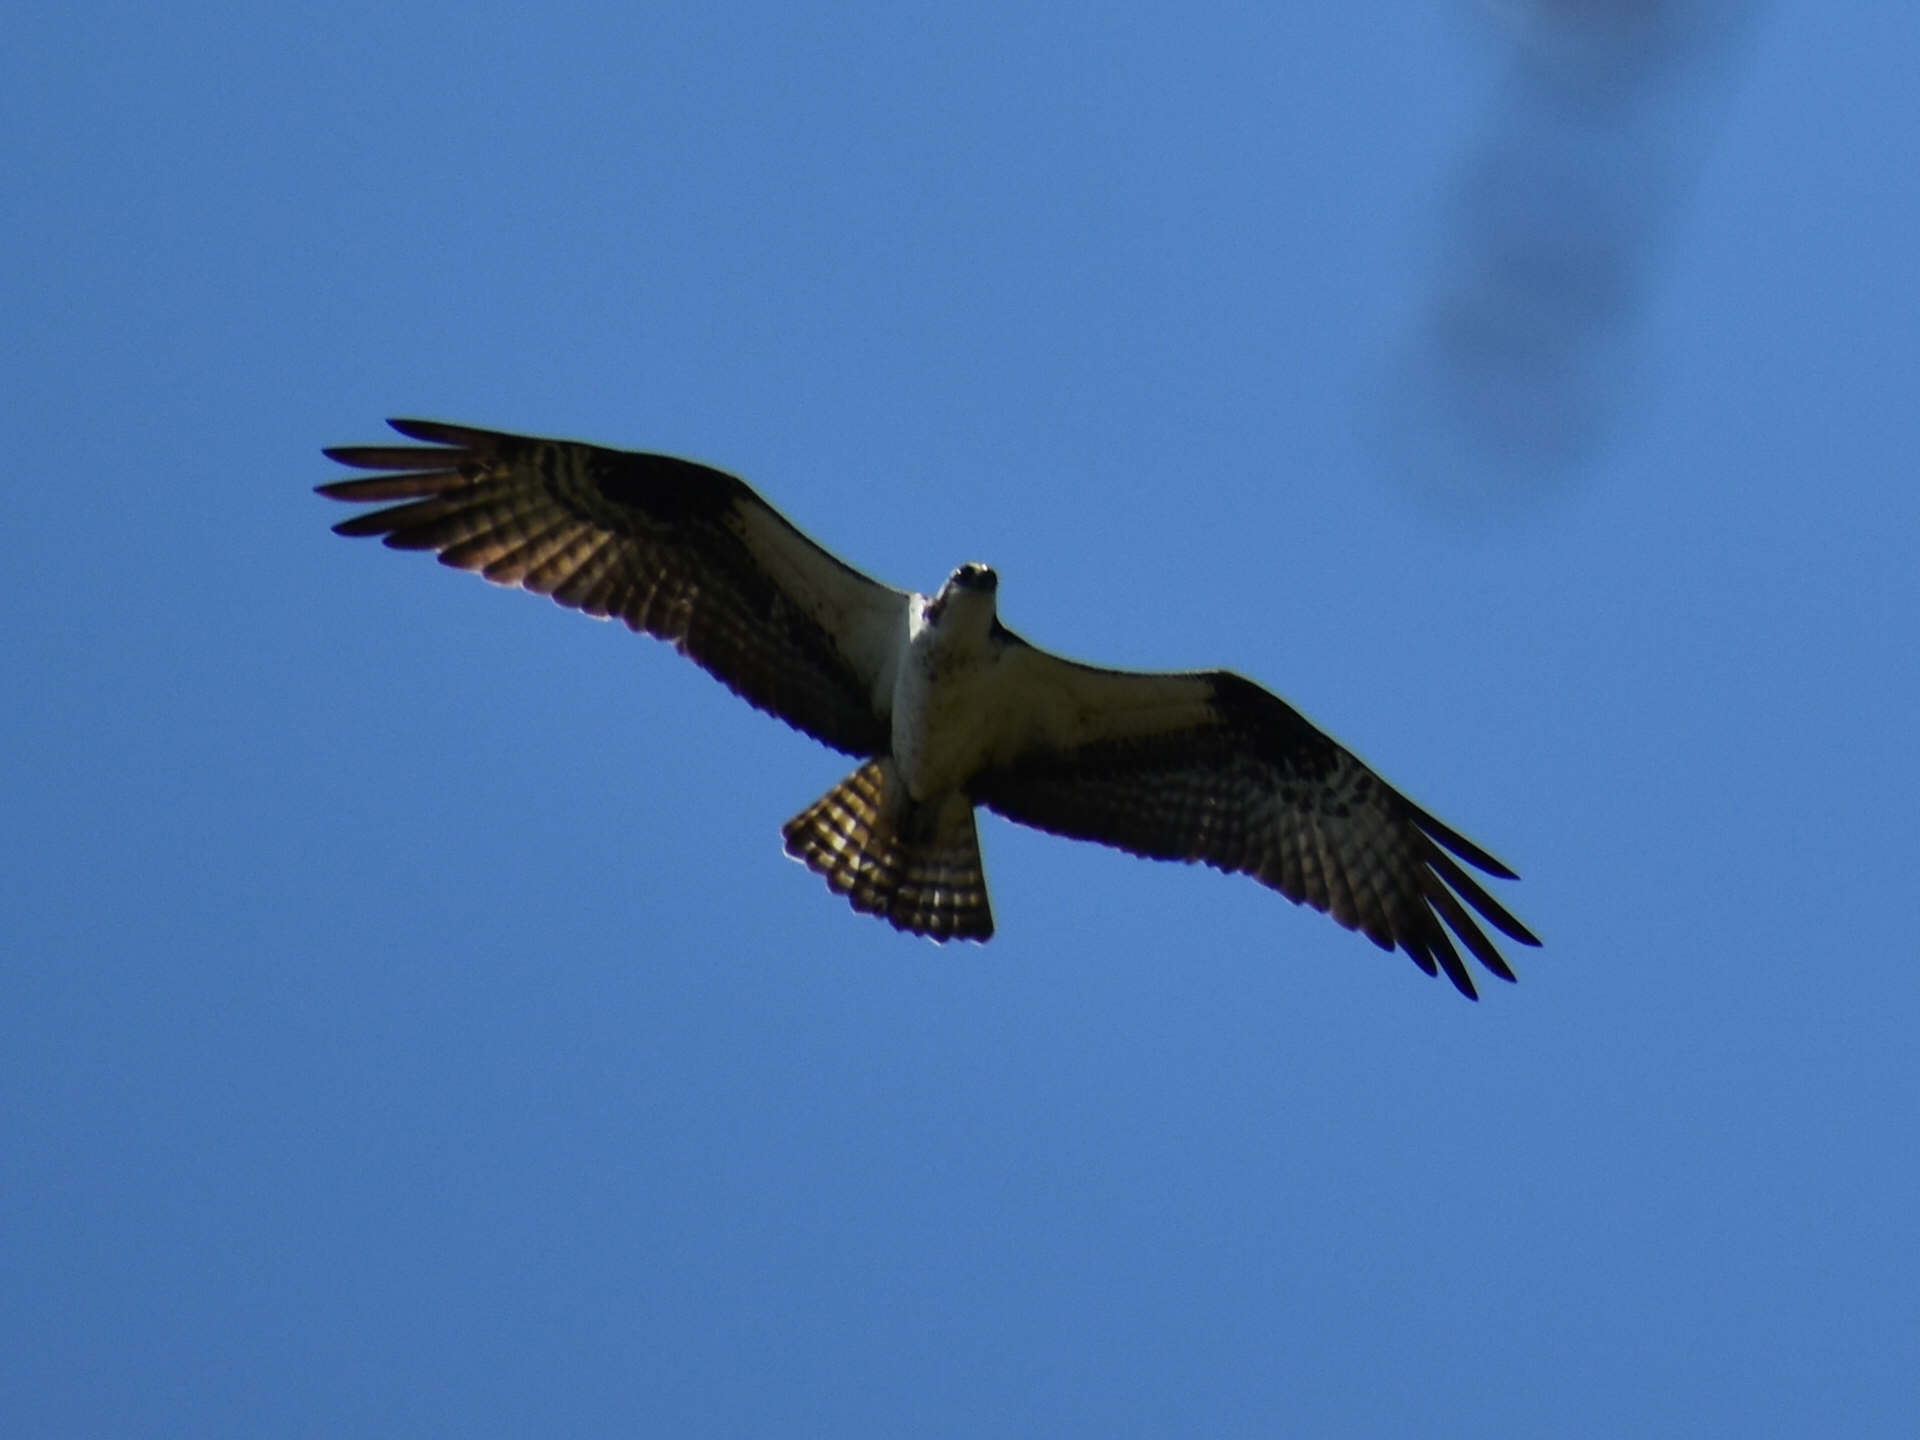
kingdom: Animalia
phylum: Chordata
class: Aves
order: Accipitriformes
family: Pandionidae
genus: Pandion
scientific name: Pandion haliaetus
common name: Osprey
